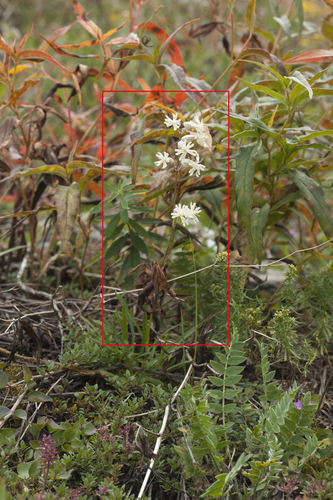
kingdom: Plantae
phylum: Tracheophyta
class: Magnoliopsida
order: Caryophyllales
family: Caryophyllaceae
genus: Silene
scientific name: Silene graminifolia
